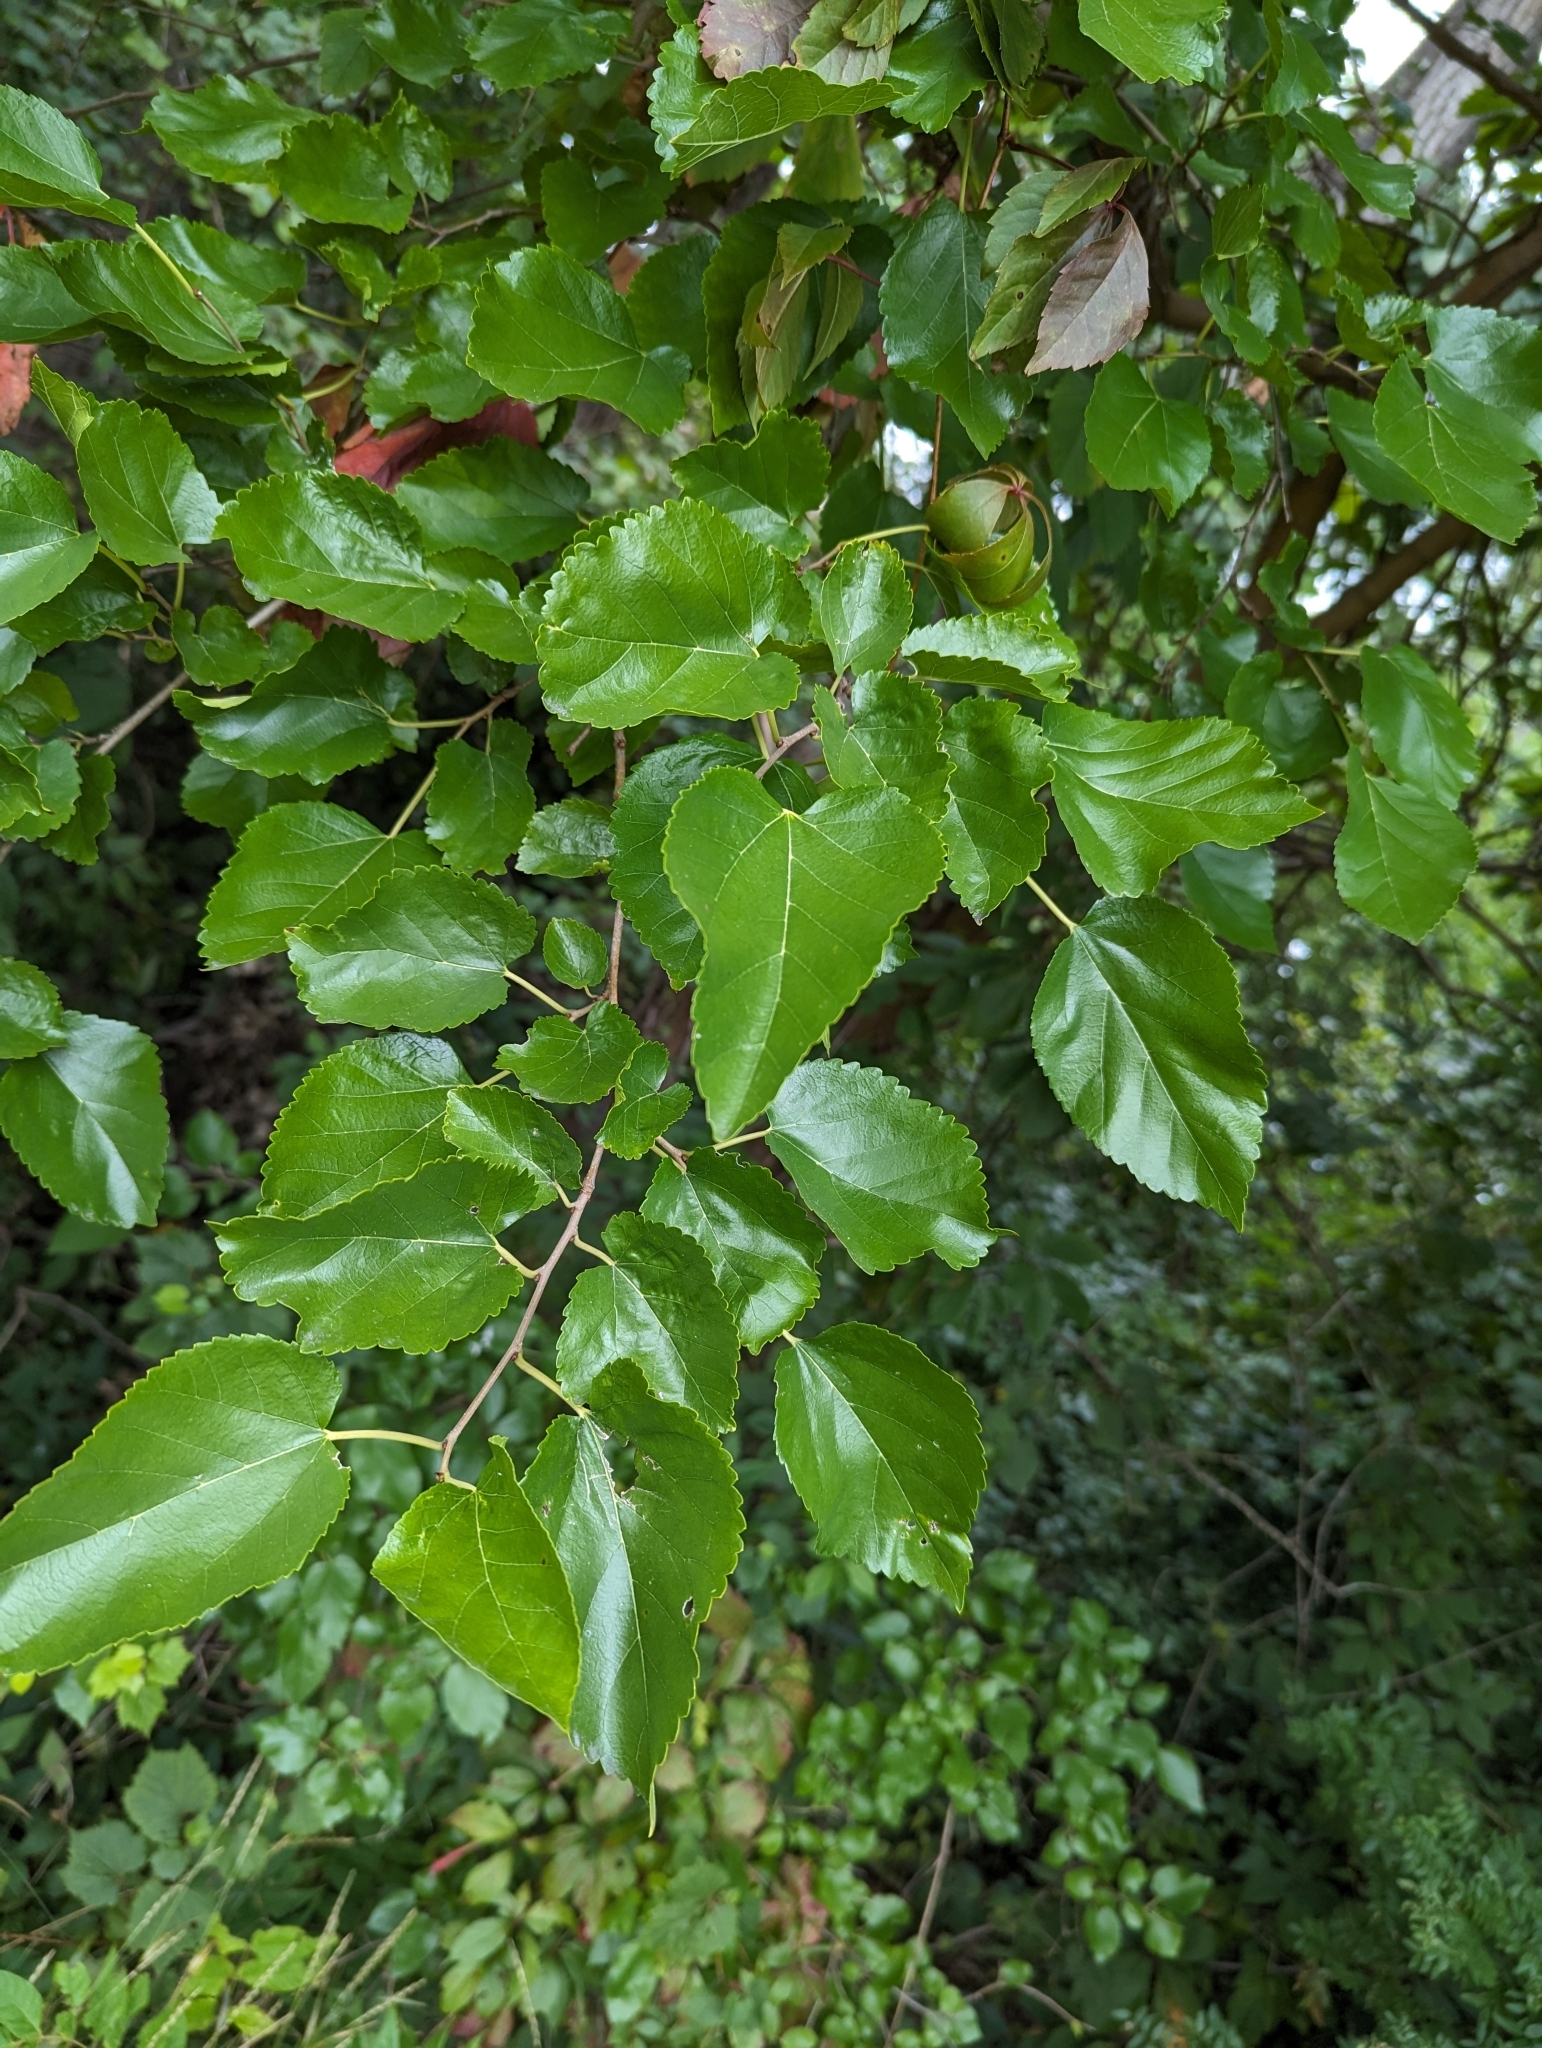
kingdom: Plantae
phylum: Tracheophyta
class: Magnoliopsida
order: Rosales
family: Moraceae
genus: Morus
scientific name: Morus alba
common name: White mulberry
